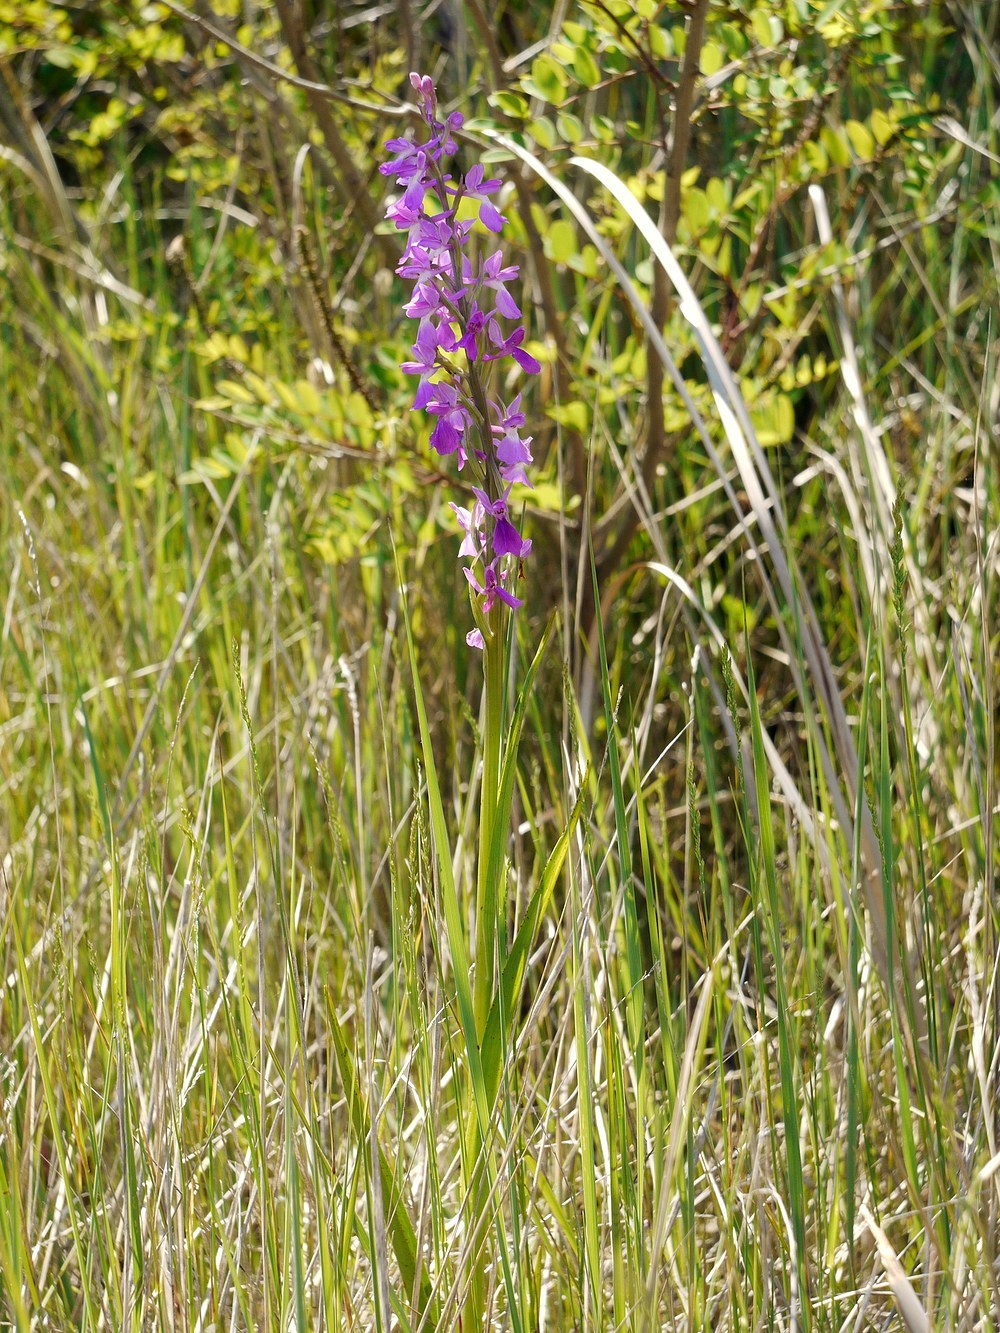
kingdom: Plantae
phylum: Tracheophyta
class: Liliopsida
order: Asparagales
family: Orchidaceae
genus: Anacamptis
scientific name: Anacamptis palustris
